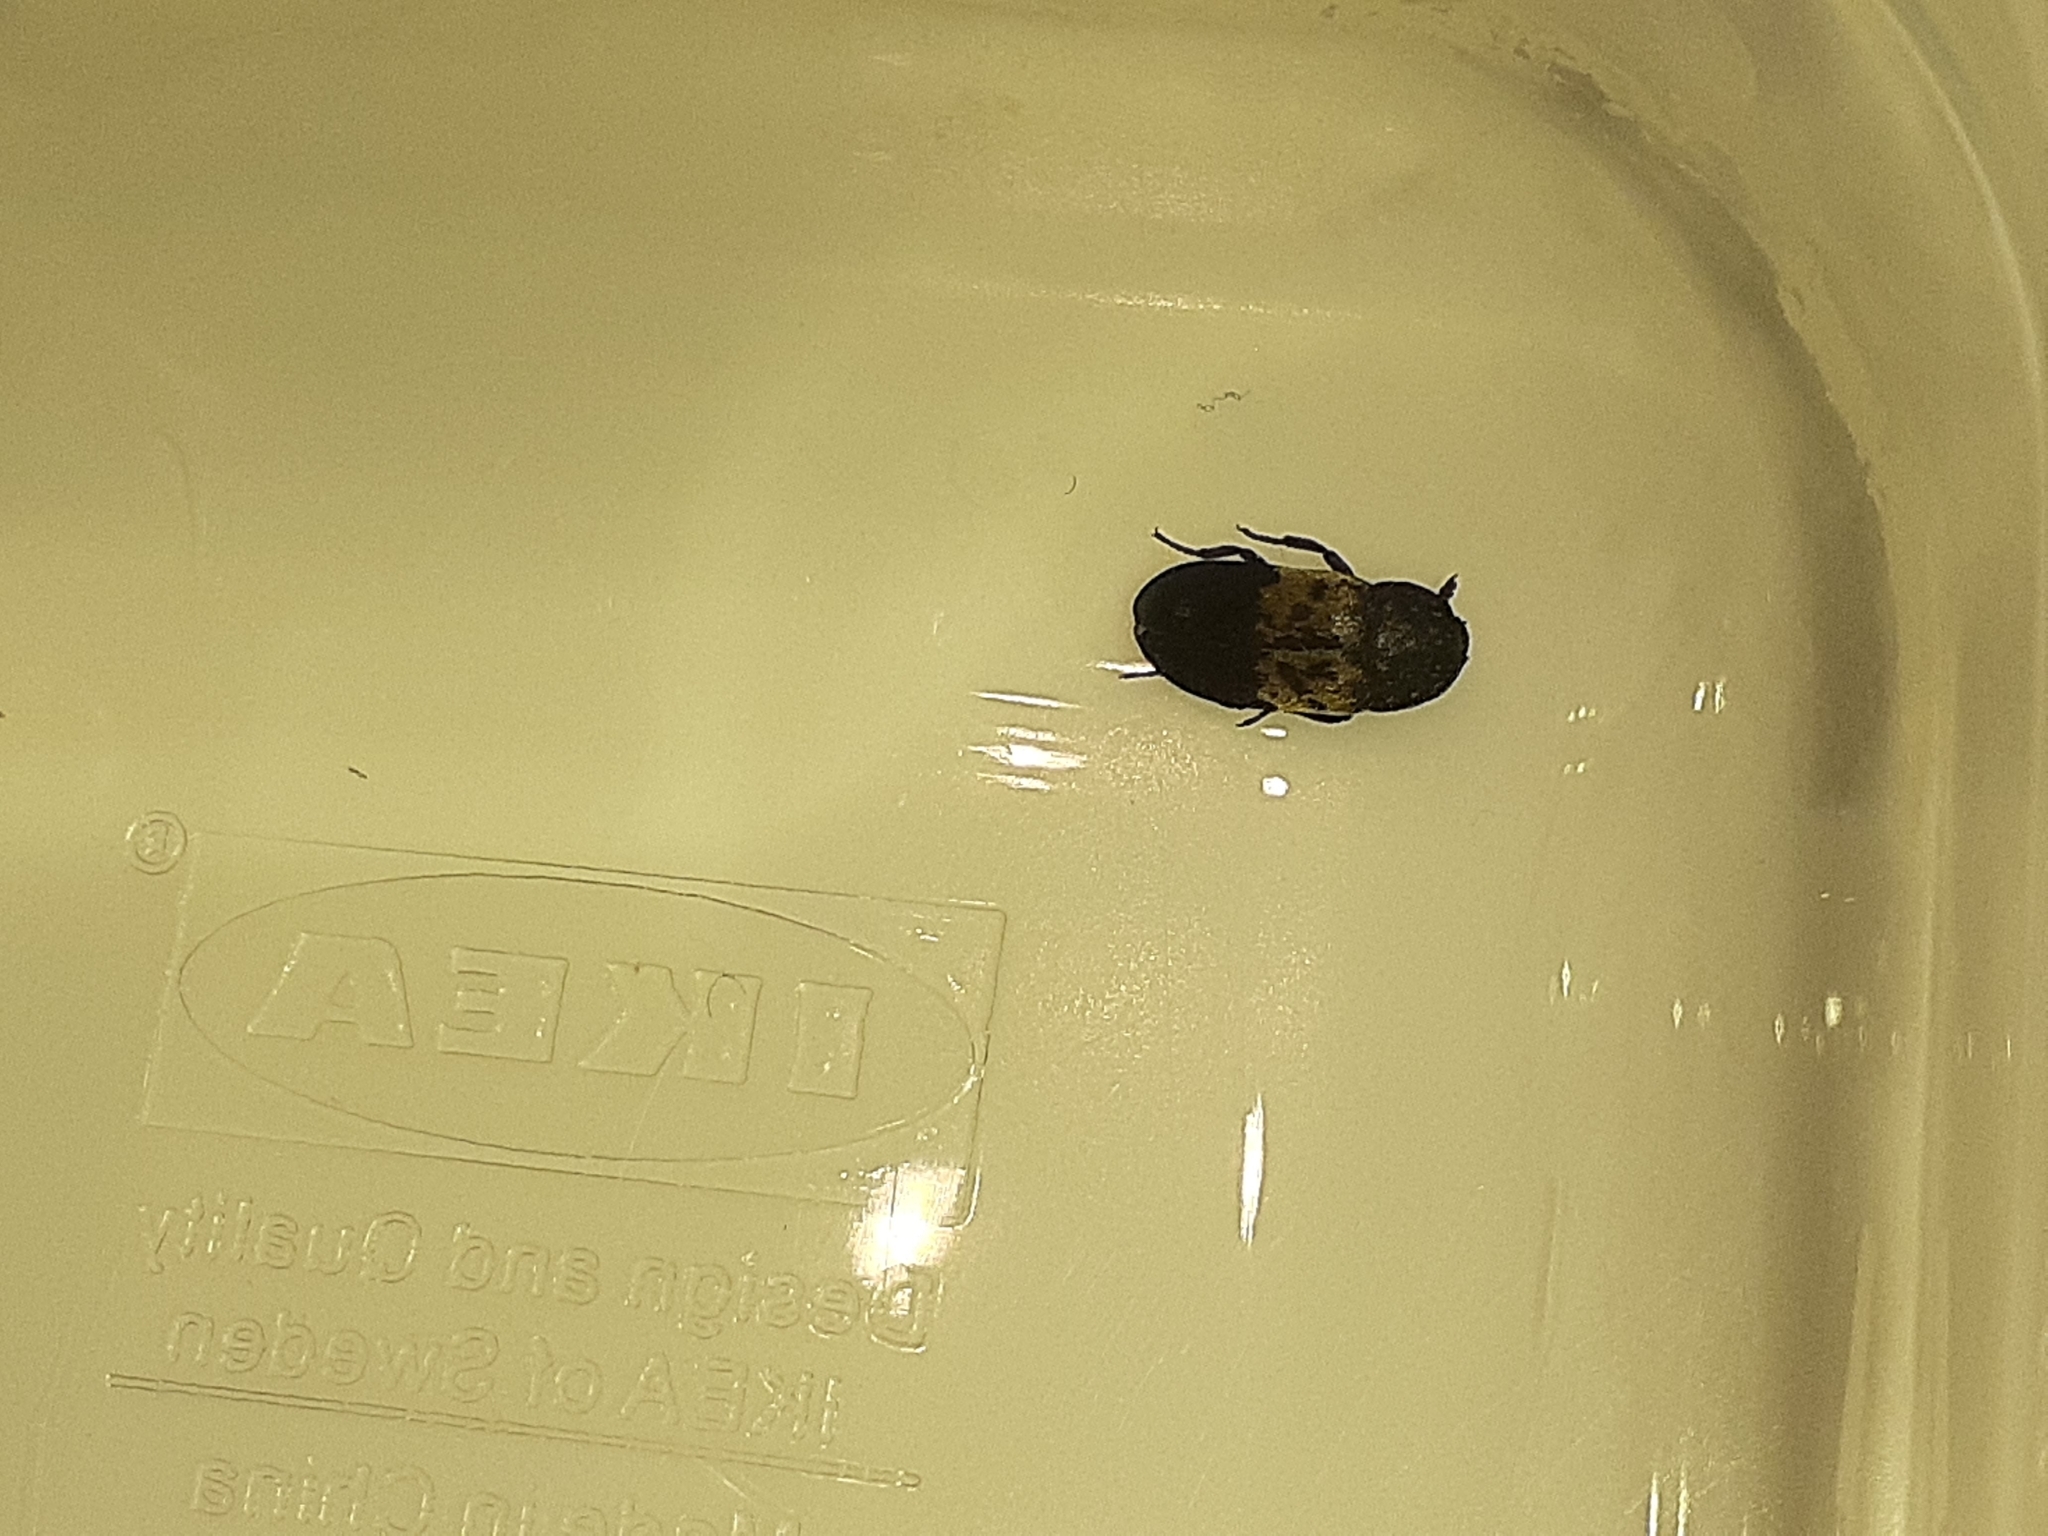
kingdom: Animalia
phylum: Arthropoda
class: Insecta
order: Coleoptera
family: Dermestidae
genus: Dermestes
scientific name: Dermestes lardarius
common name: Larder beetle
